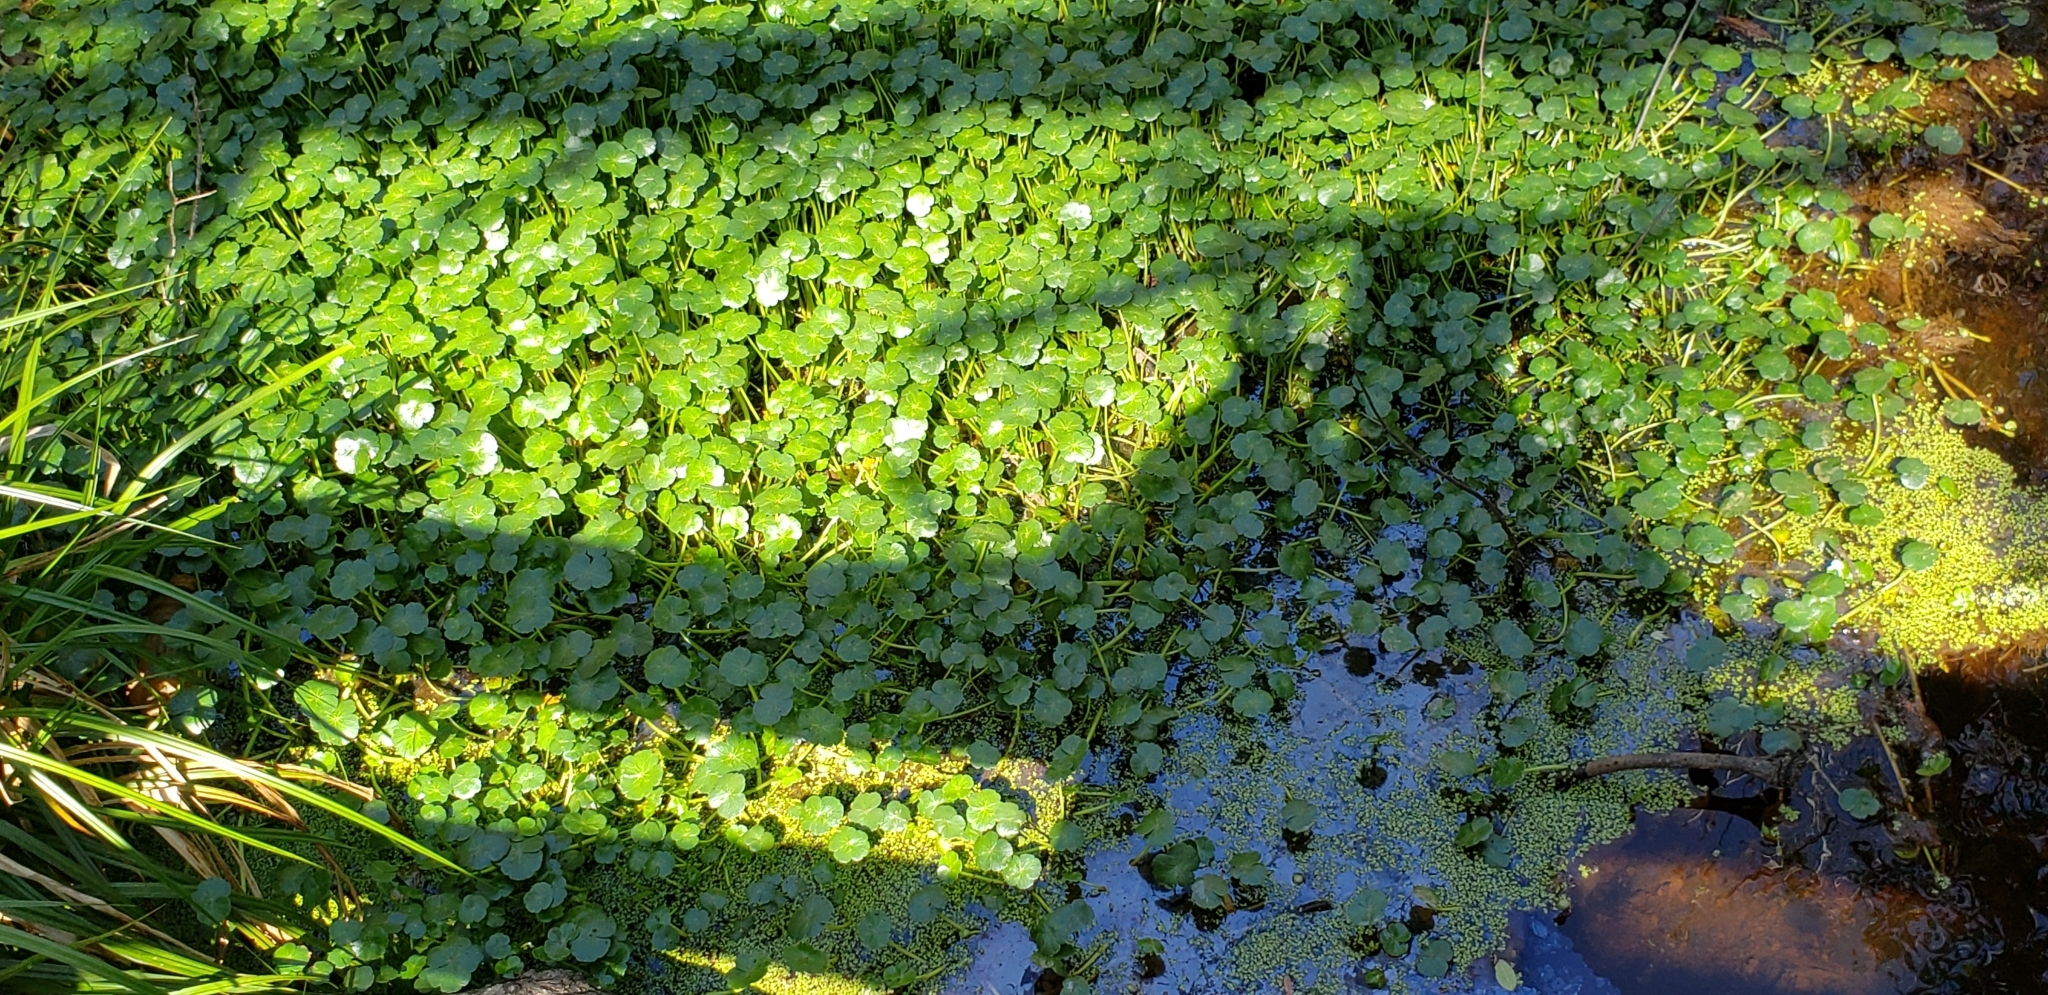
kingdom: Plantae
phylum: Tracheophyta
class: Magnoliopsida
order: Apiales
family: Araliaceae
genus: Hydrocotyle
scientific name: Hydrocotyle ranunculoides
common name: Floating pennywort
